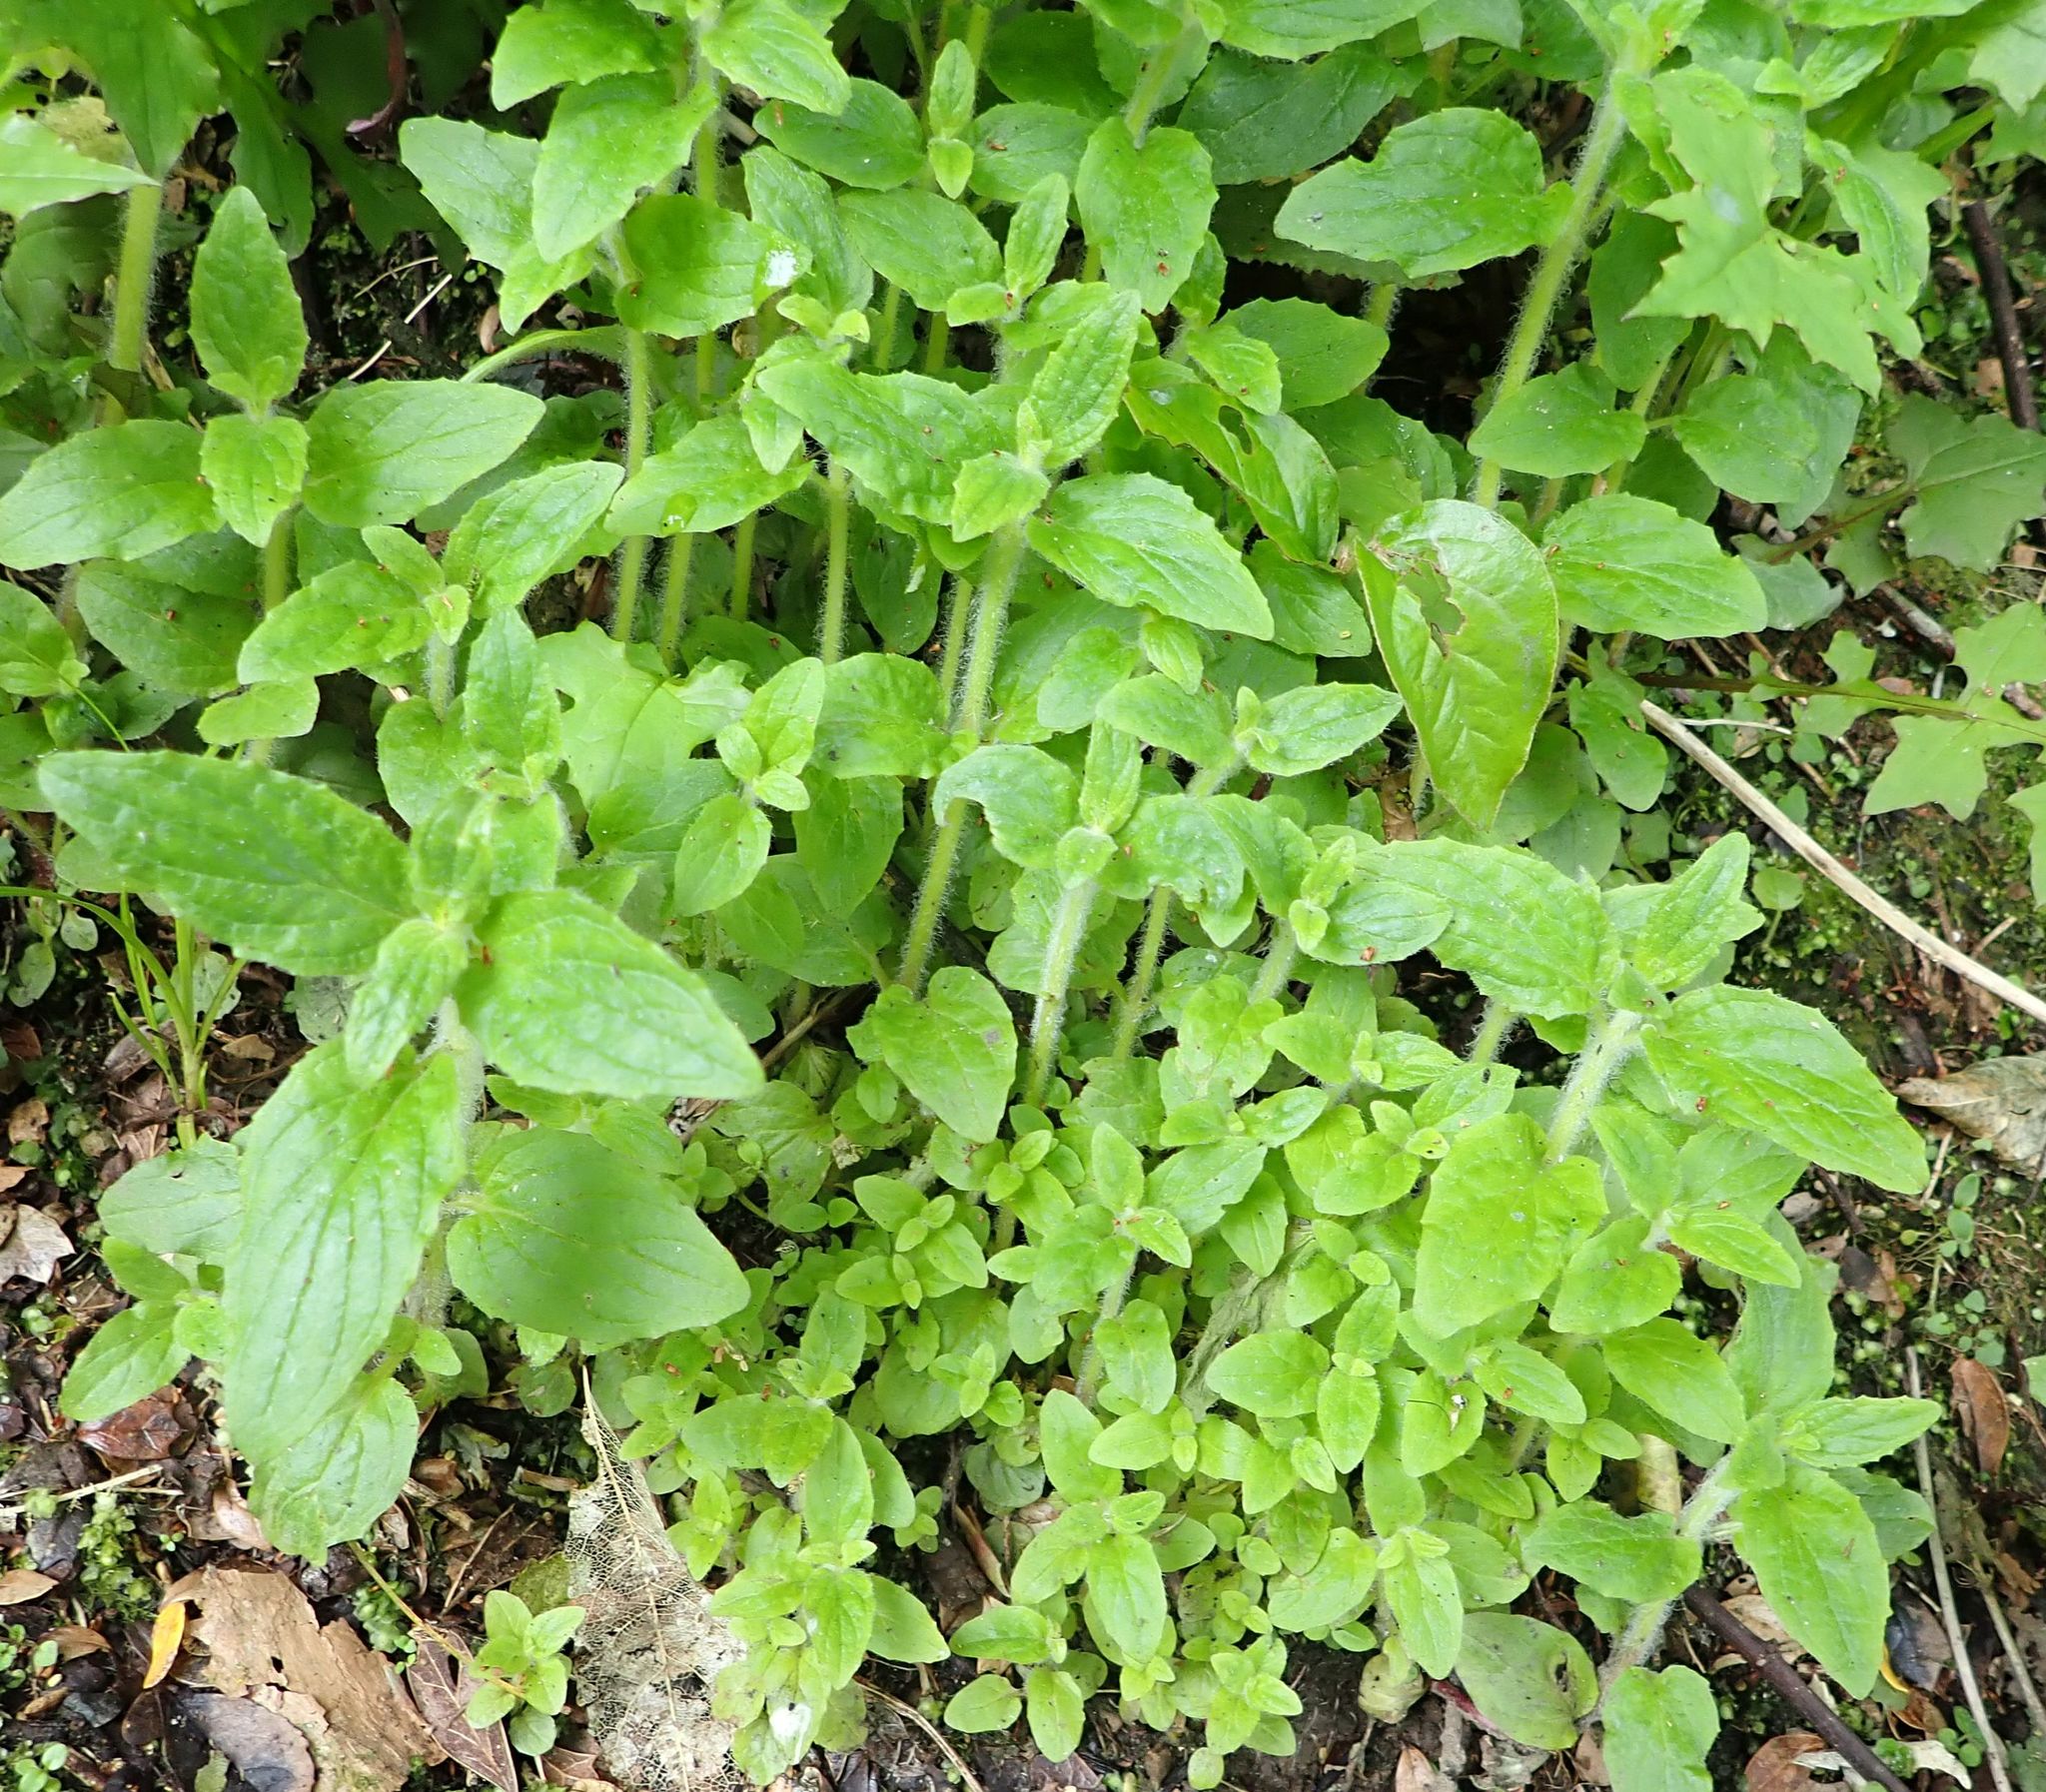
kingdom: Plantae
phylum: Tracheophyta
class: Magnoliopsida
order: Lamiales
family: Phrymaceae
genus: Erythranthe
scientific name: Erythranthe moschata
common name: Muskflower
